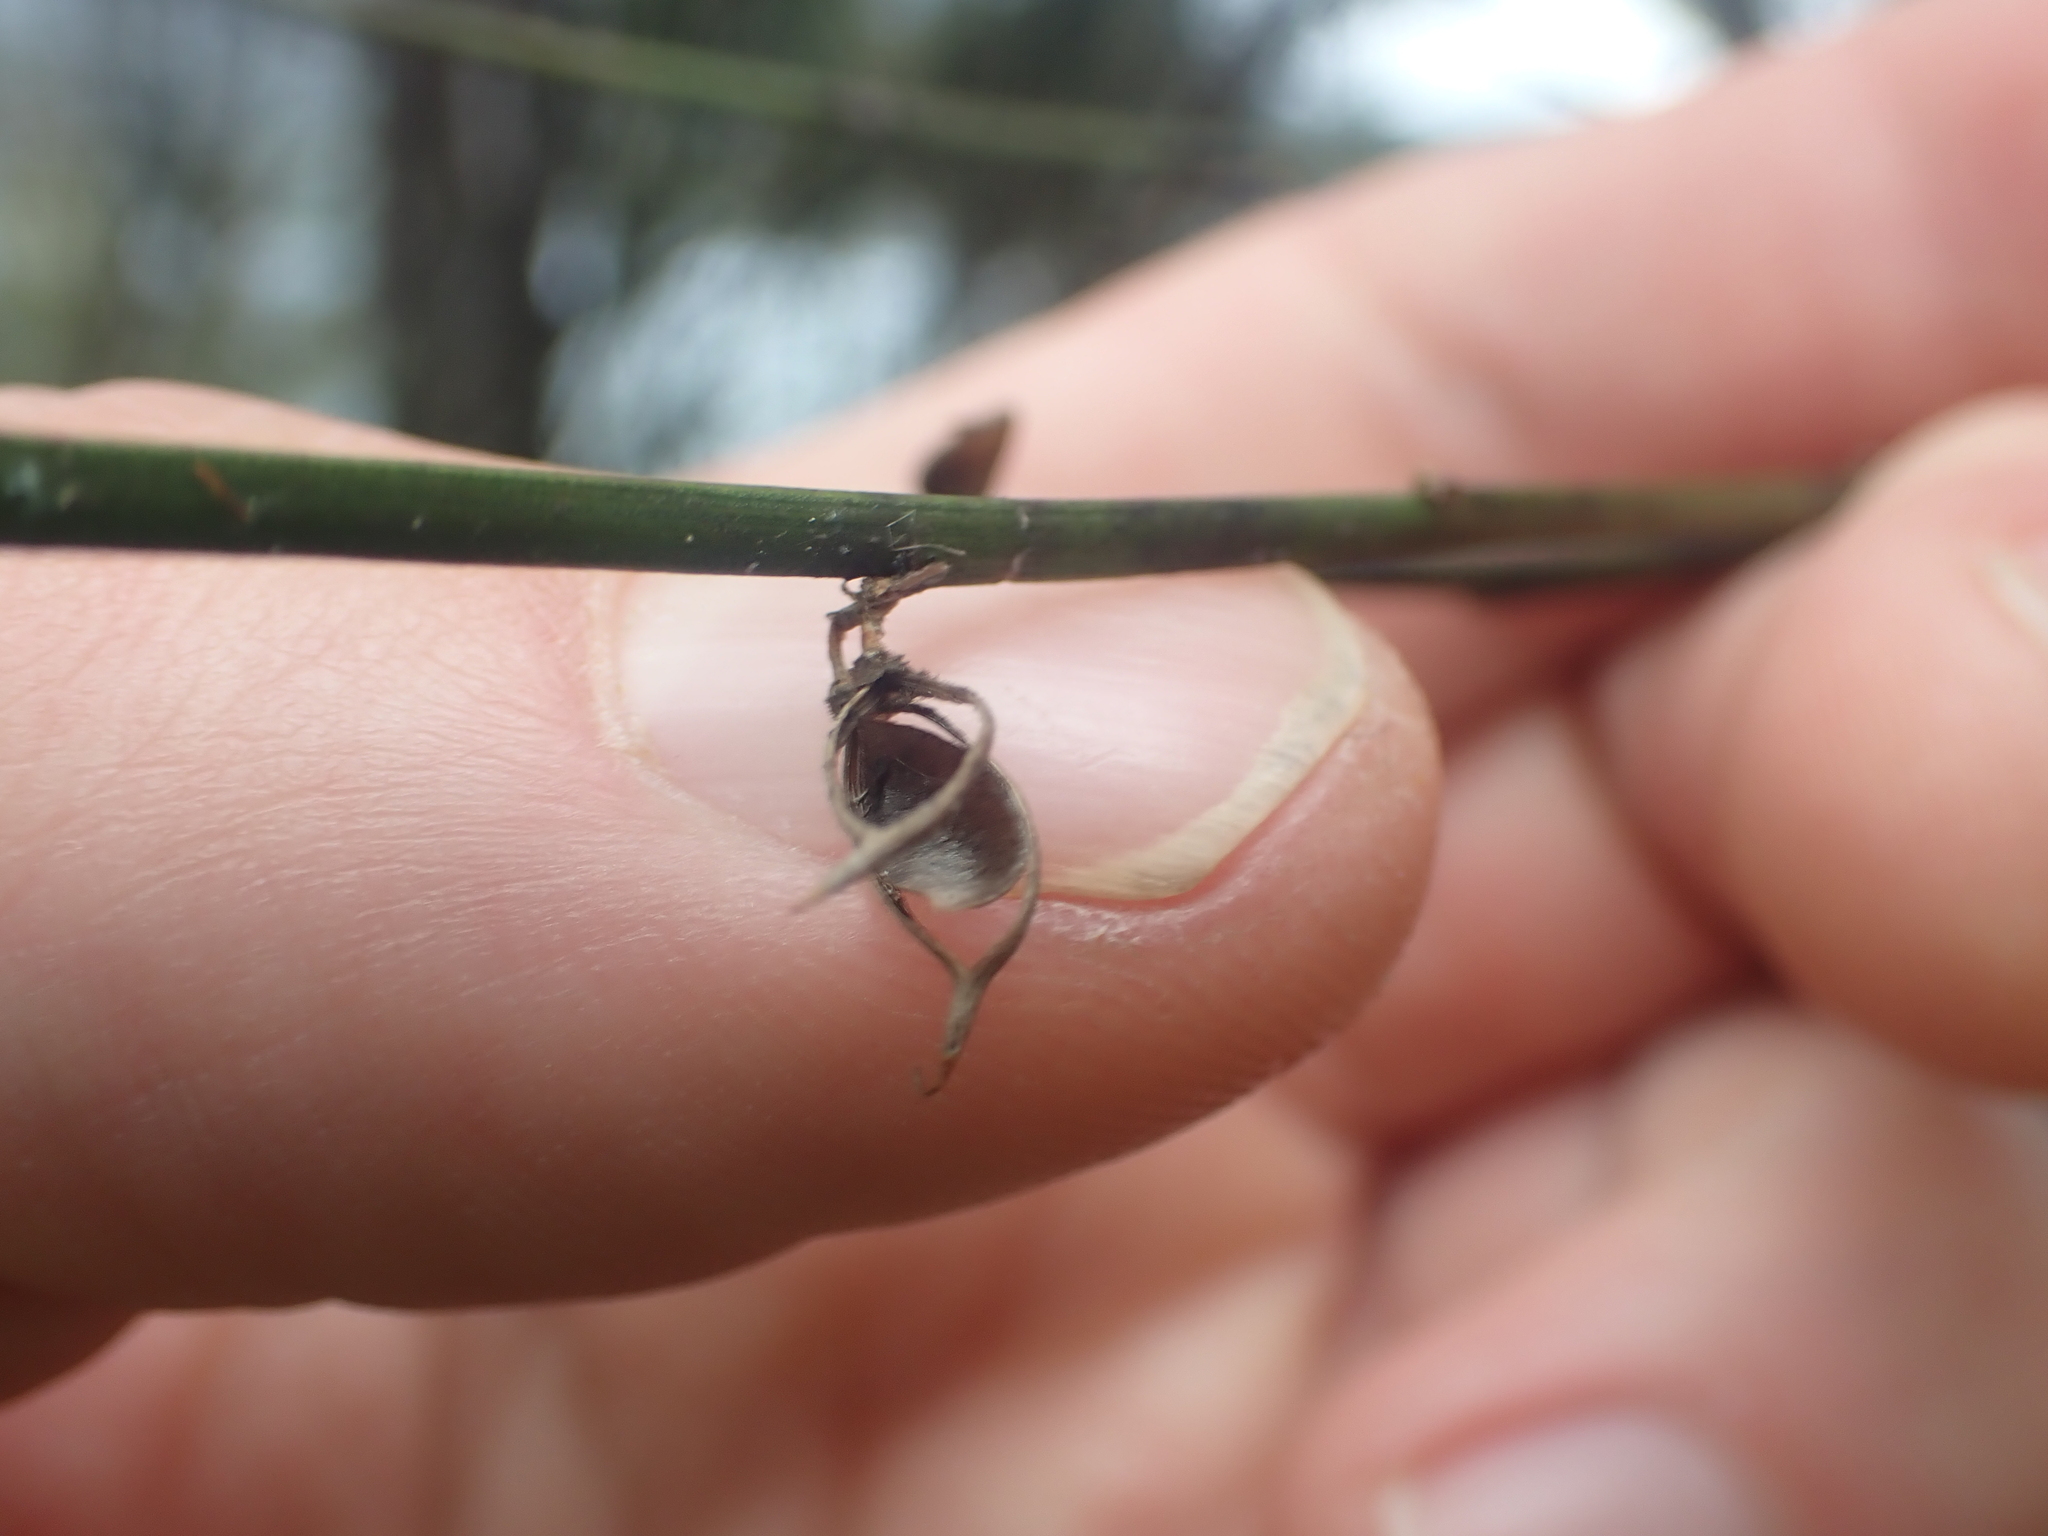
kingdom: Plantae
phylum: Tracheophyta
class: Magnoliopsida
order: Fabales
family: Fabaceae
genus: Carmichaelia
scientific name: Carmichaelia australis
